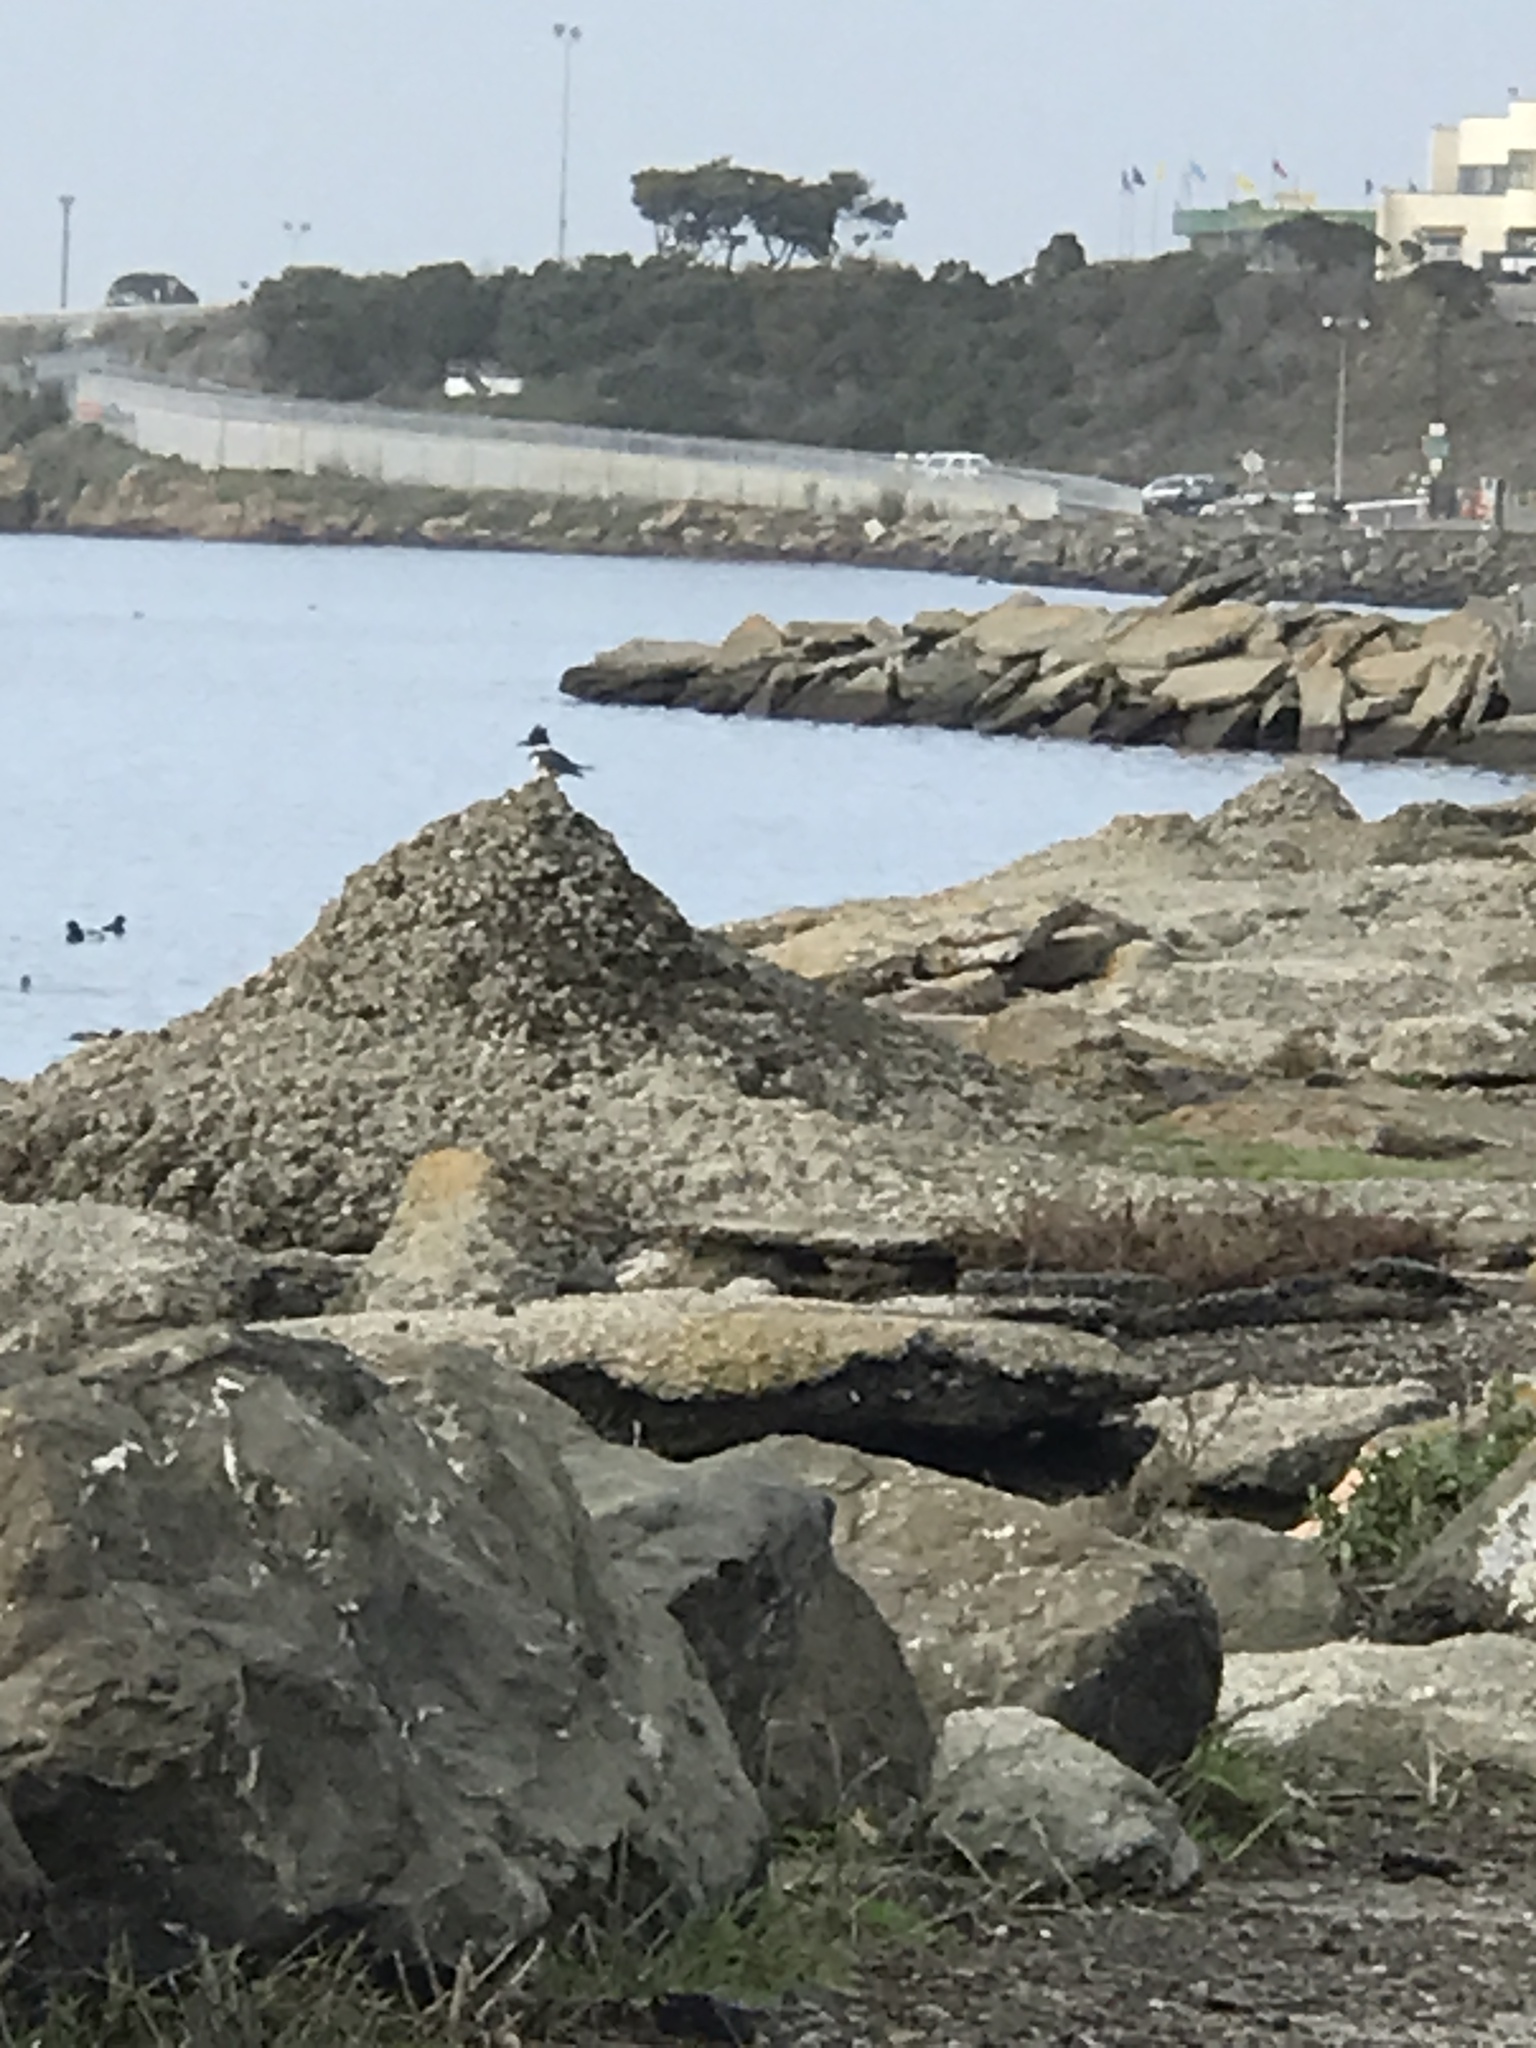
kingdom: Animalia
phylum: Chordata
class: Aves
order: Coraciiformes
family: Alcedinidae
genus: Megaceryle
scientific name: Megaceryle alcyon
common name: Belted kingfisher
